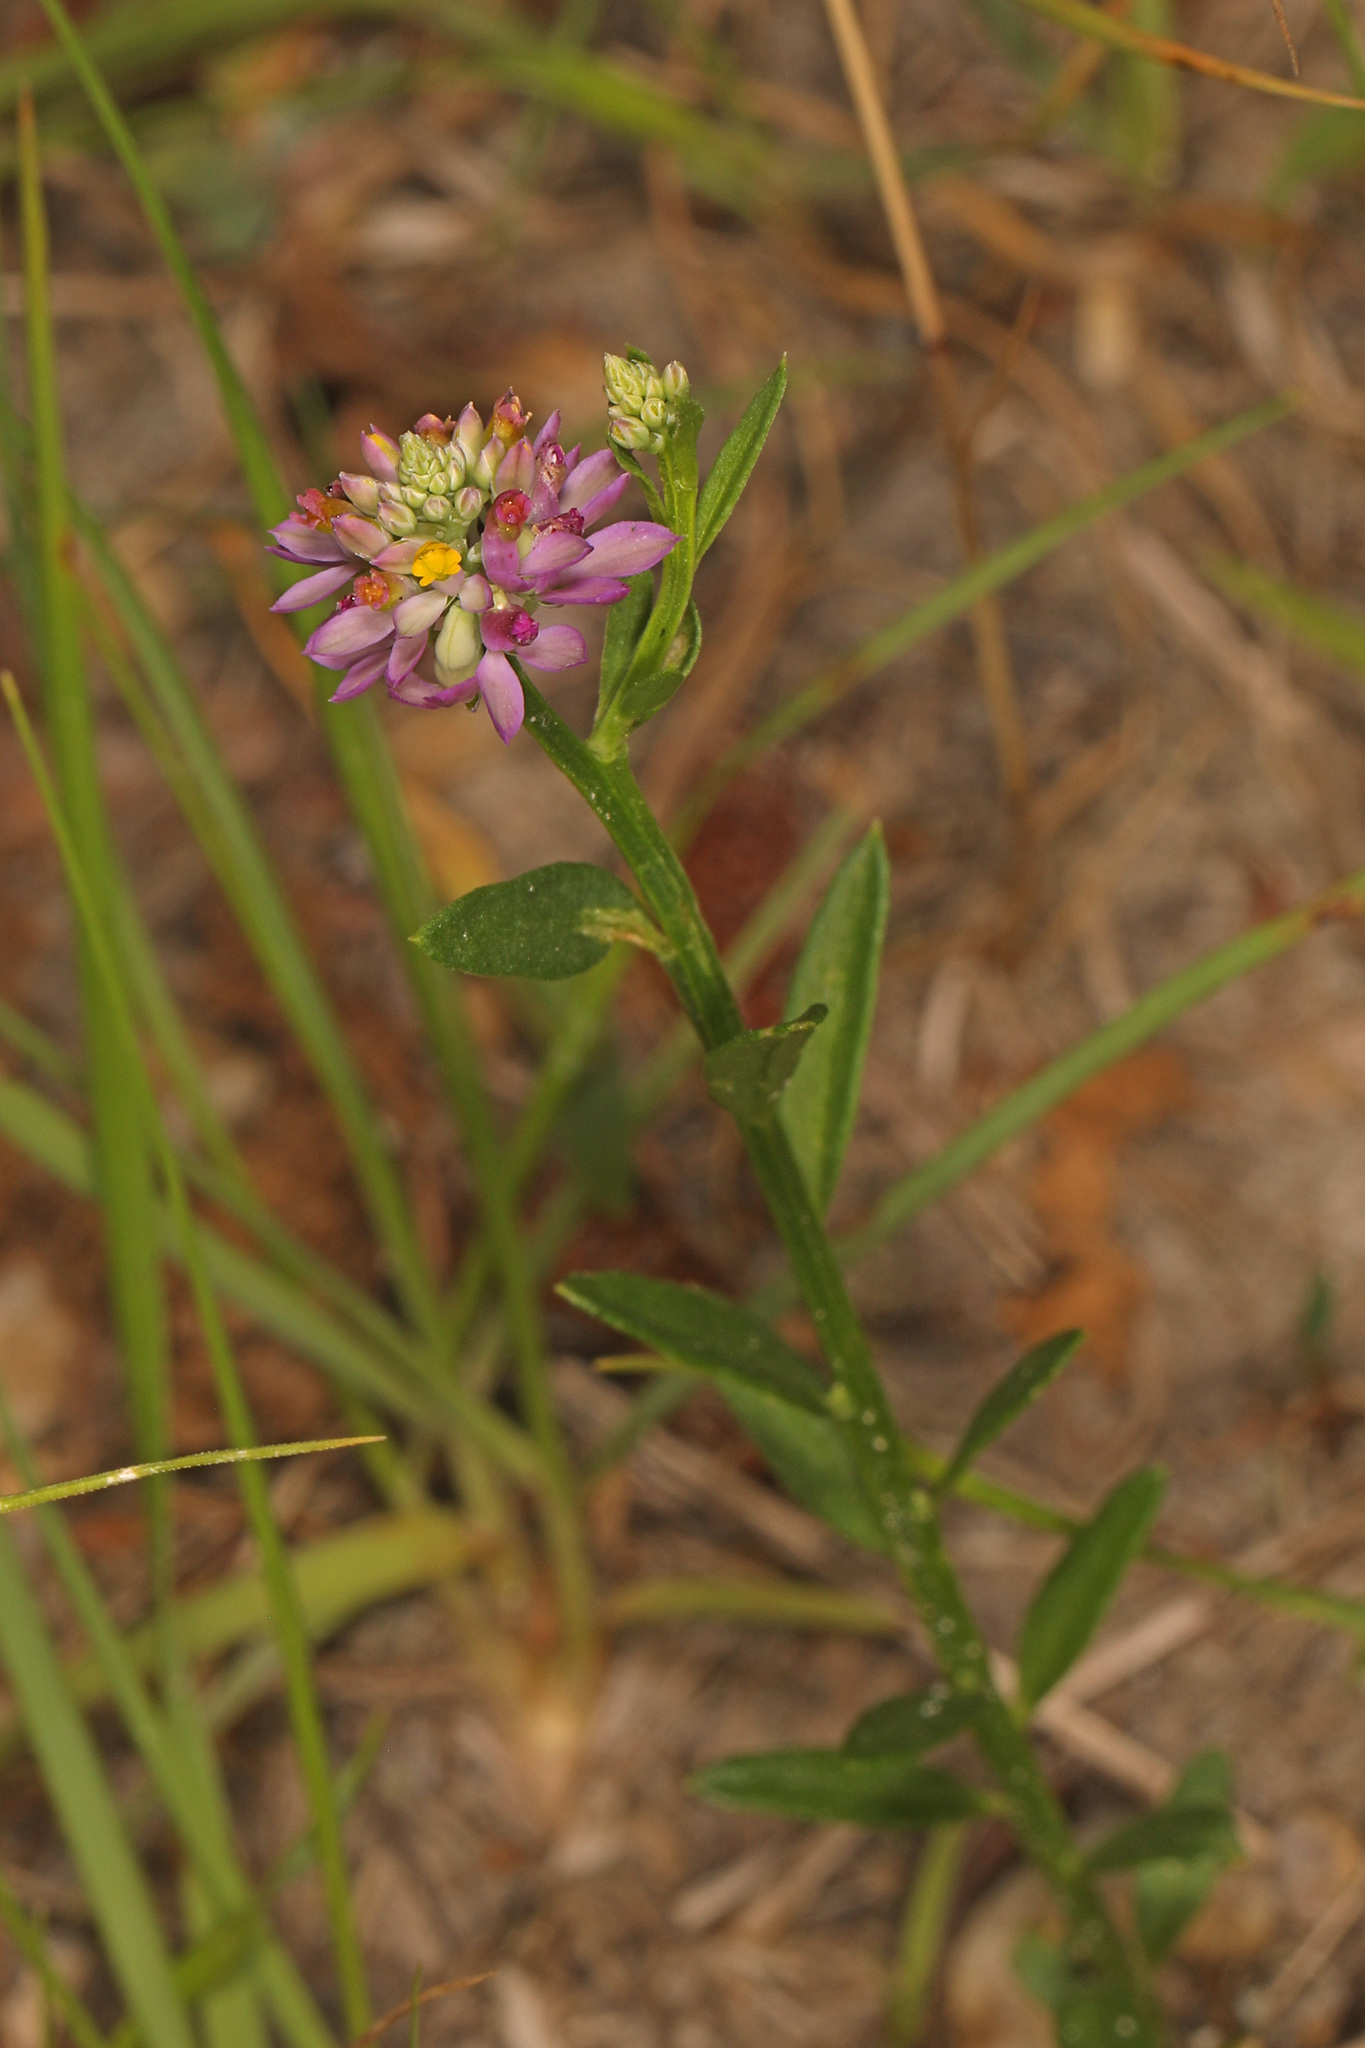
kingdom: Plantae
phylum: Tracheophyta
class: Magnoliopsida
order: Fabales
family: Polygalaceae
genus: Polygala
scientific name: Polygala mariana
